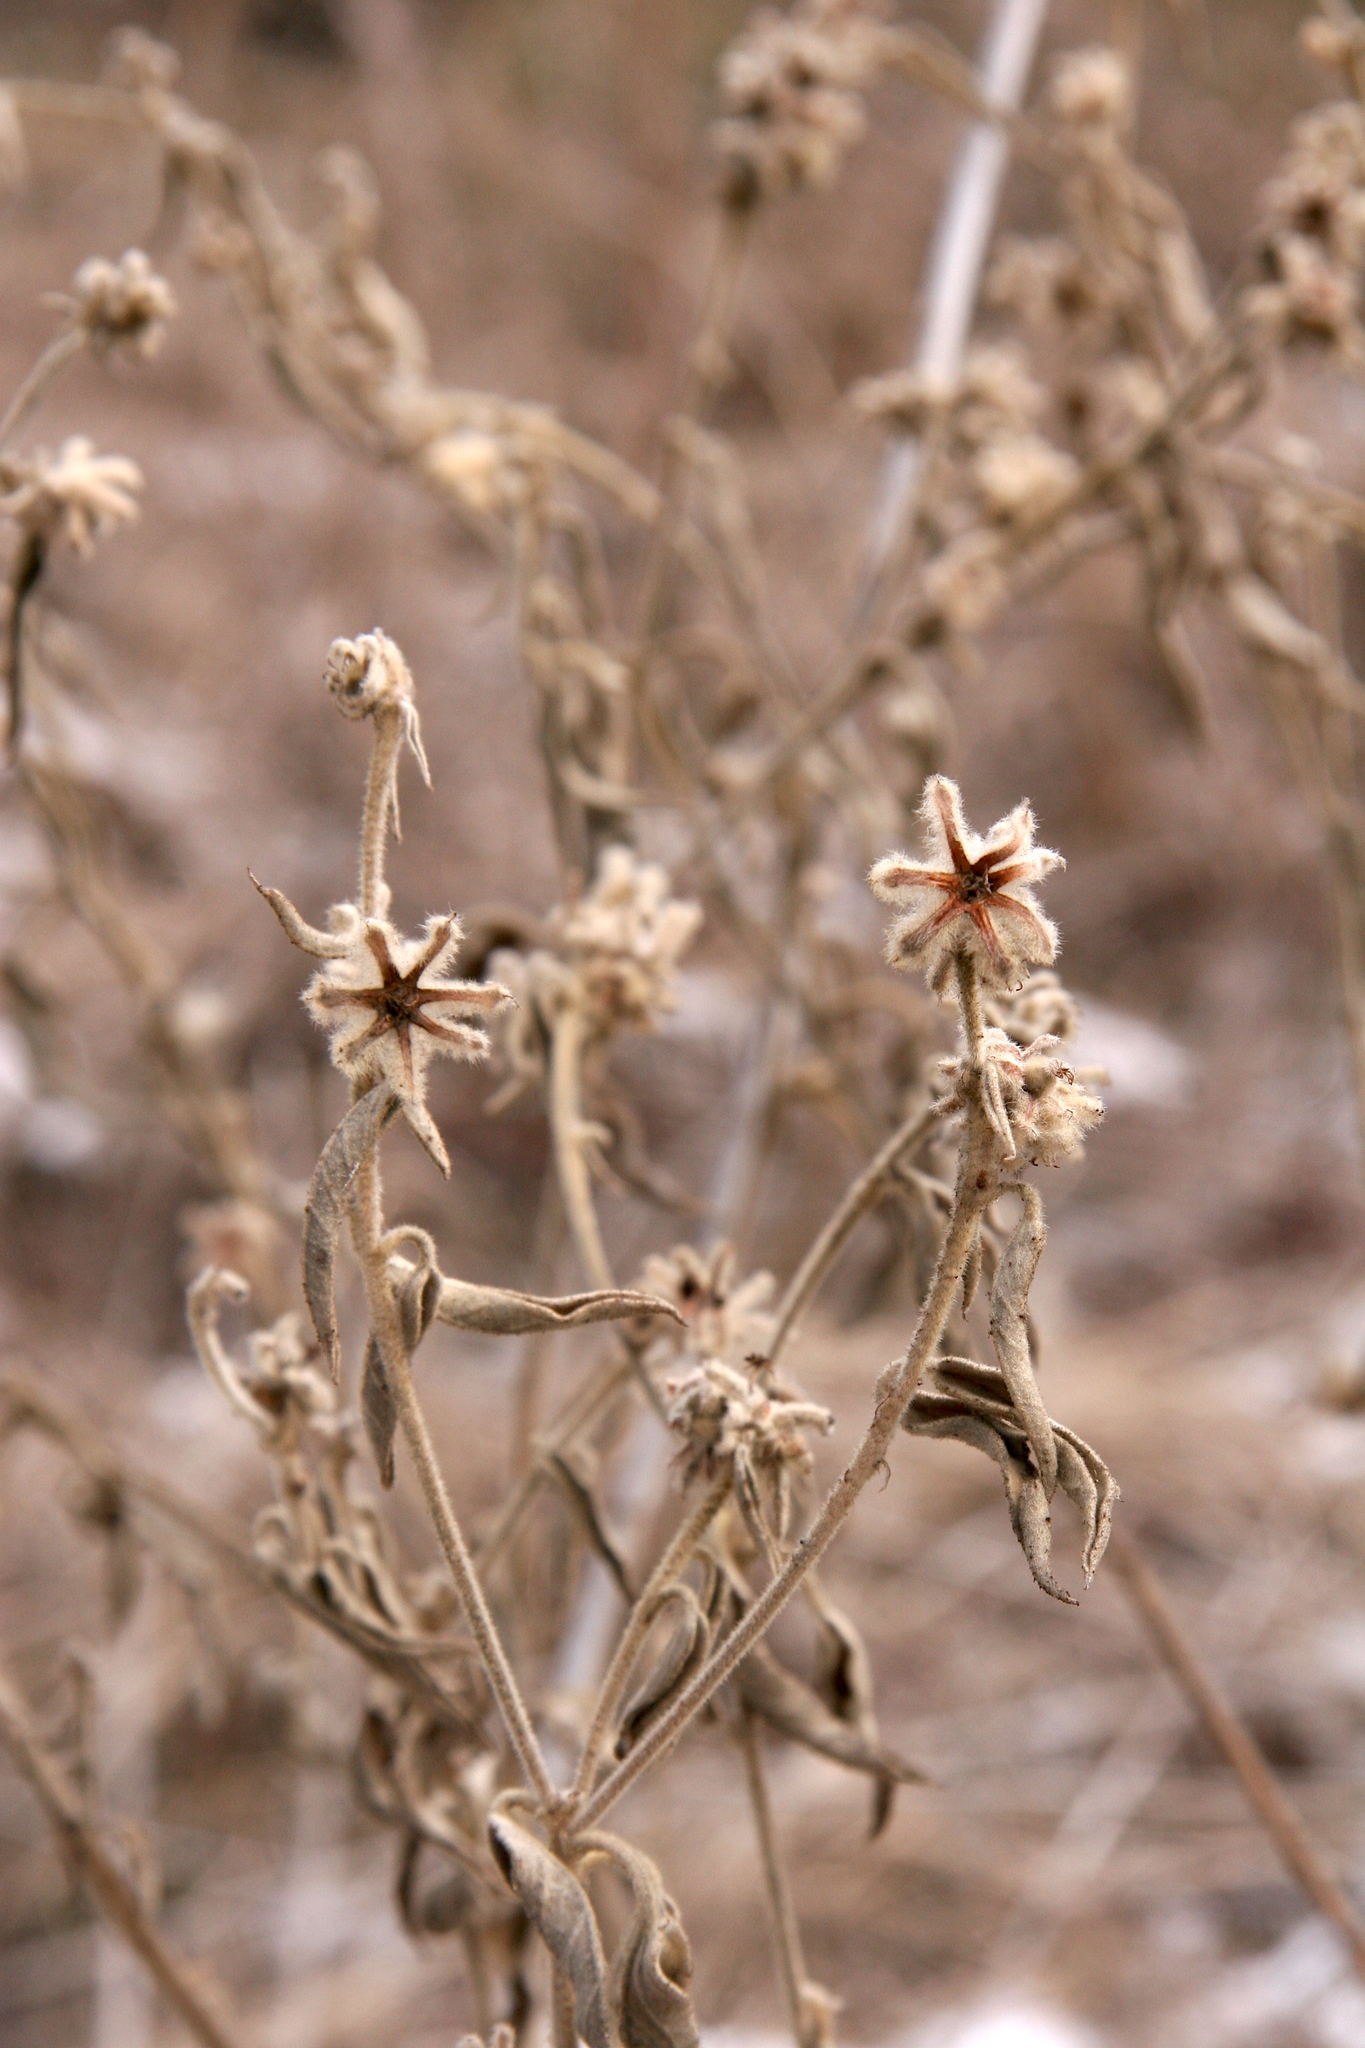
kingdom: Plantae
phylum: Tracheophyta
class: Magnoliopsida
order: Malpighiales
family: Euphorbiaceae
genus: Croton
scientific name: Croton lindheimeri
